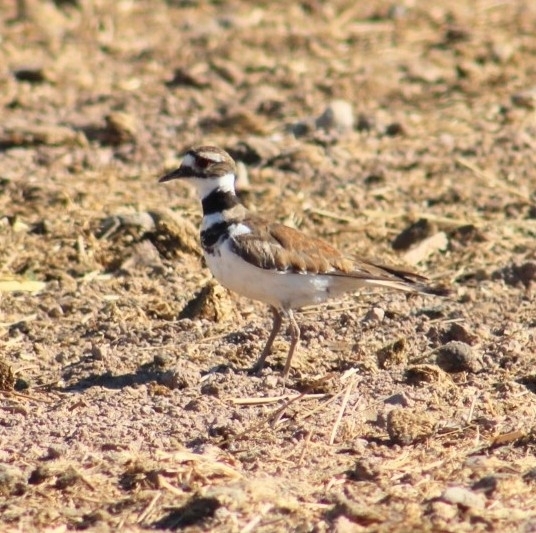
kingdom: Animalia
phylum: Chordata
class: Aves
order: Charadriiformes
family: Charadriidae
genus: Charadrius
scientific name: Charadrius vociferus
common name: Killdeer
